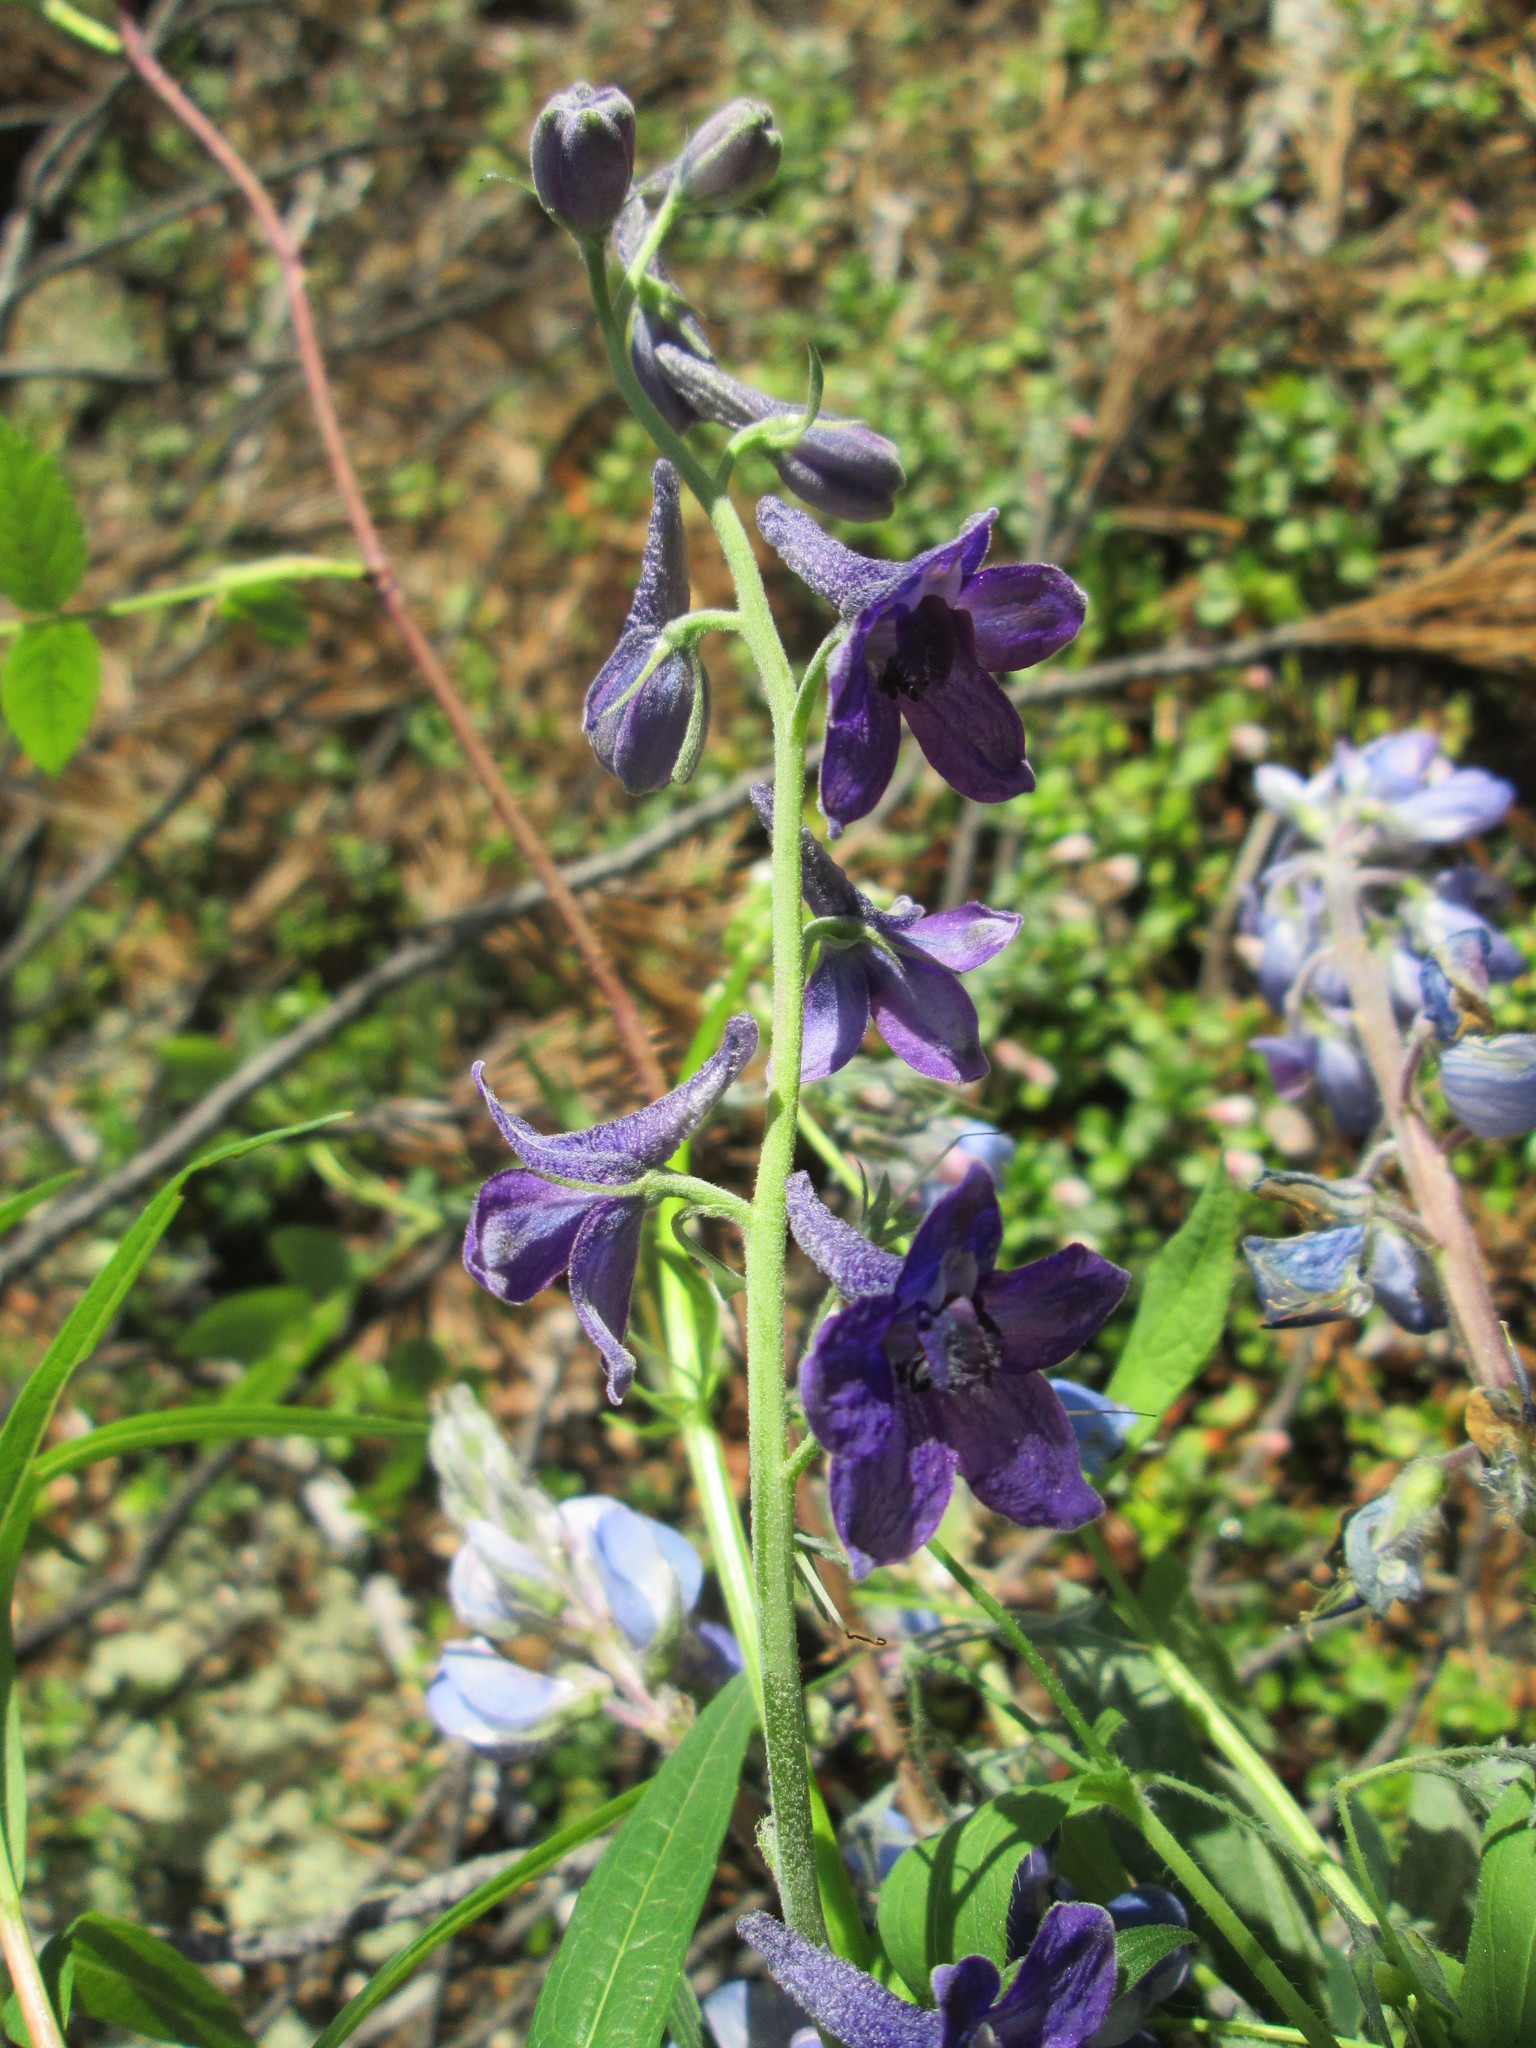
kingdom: Plantae
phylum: Tracheophyta
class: Magnoliopsida
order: Ranunculales
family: Ranunculaceae
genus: Delphinium
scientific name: Delphinium glaucum
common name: Brown's larkspur
